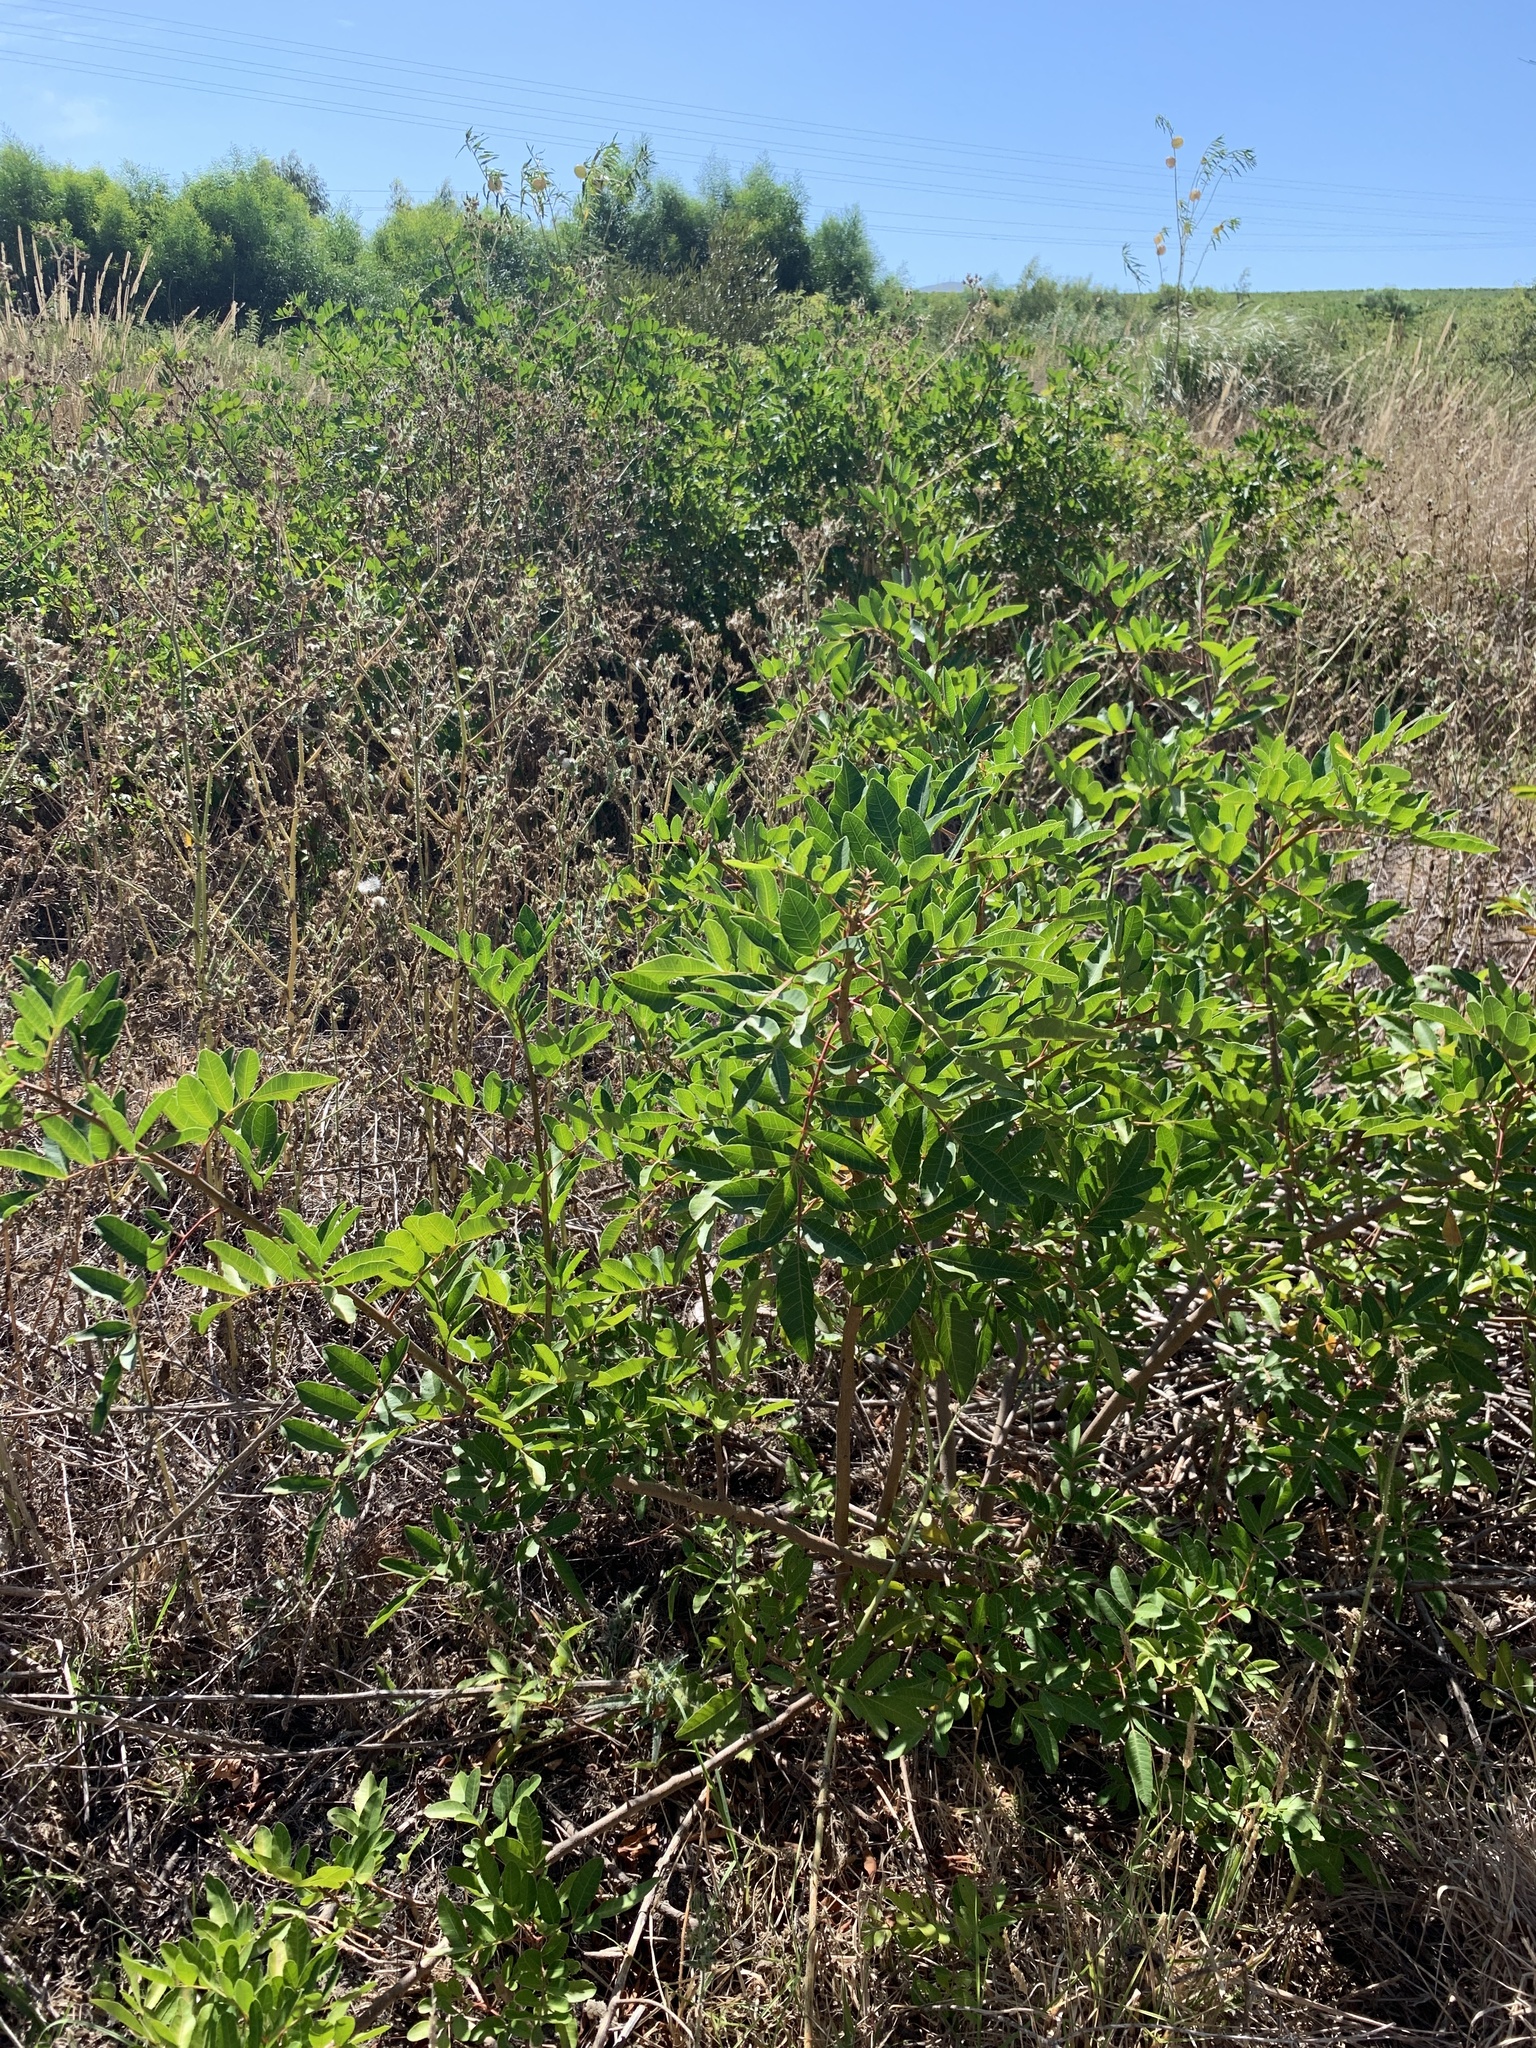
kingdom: Plantae
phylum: Tracheophyta
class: Magnoliopsida
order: Sapindales
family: Anacardiaceae
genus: Schinus
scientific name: Schinus terebinthifolia
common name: Brazilian peppertree
